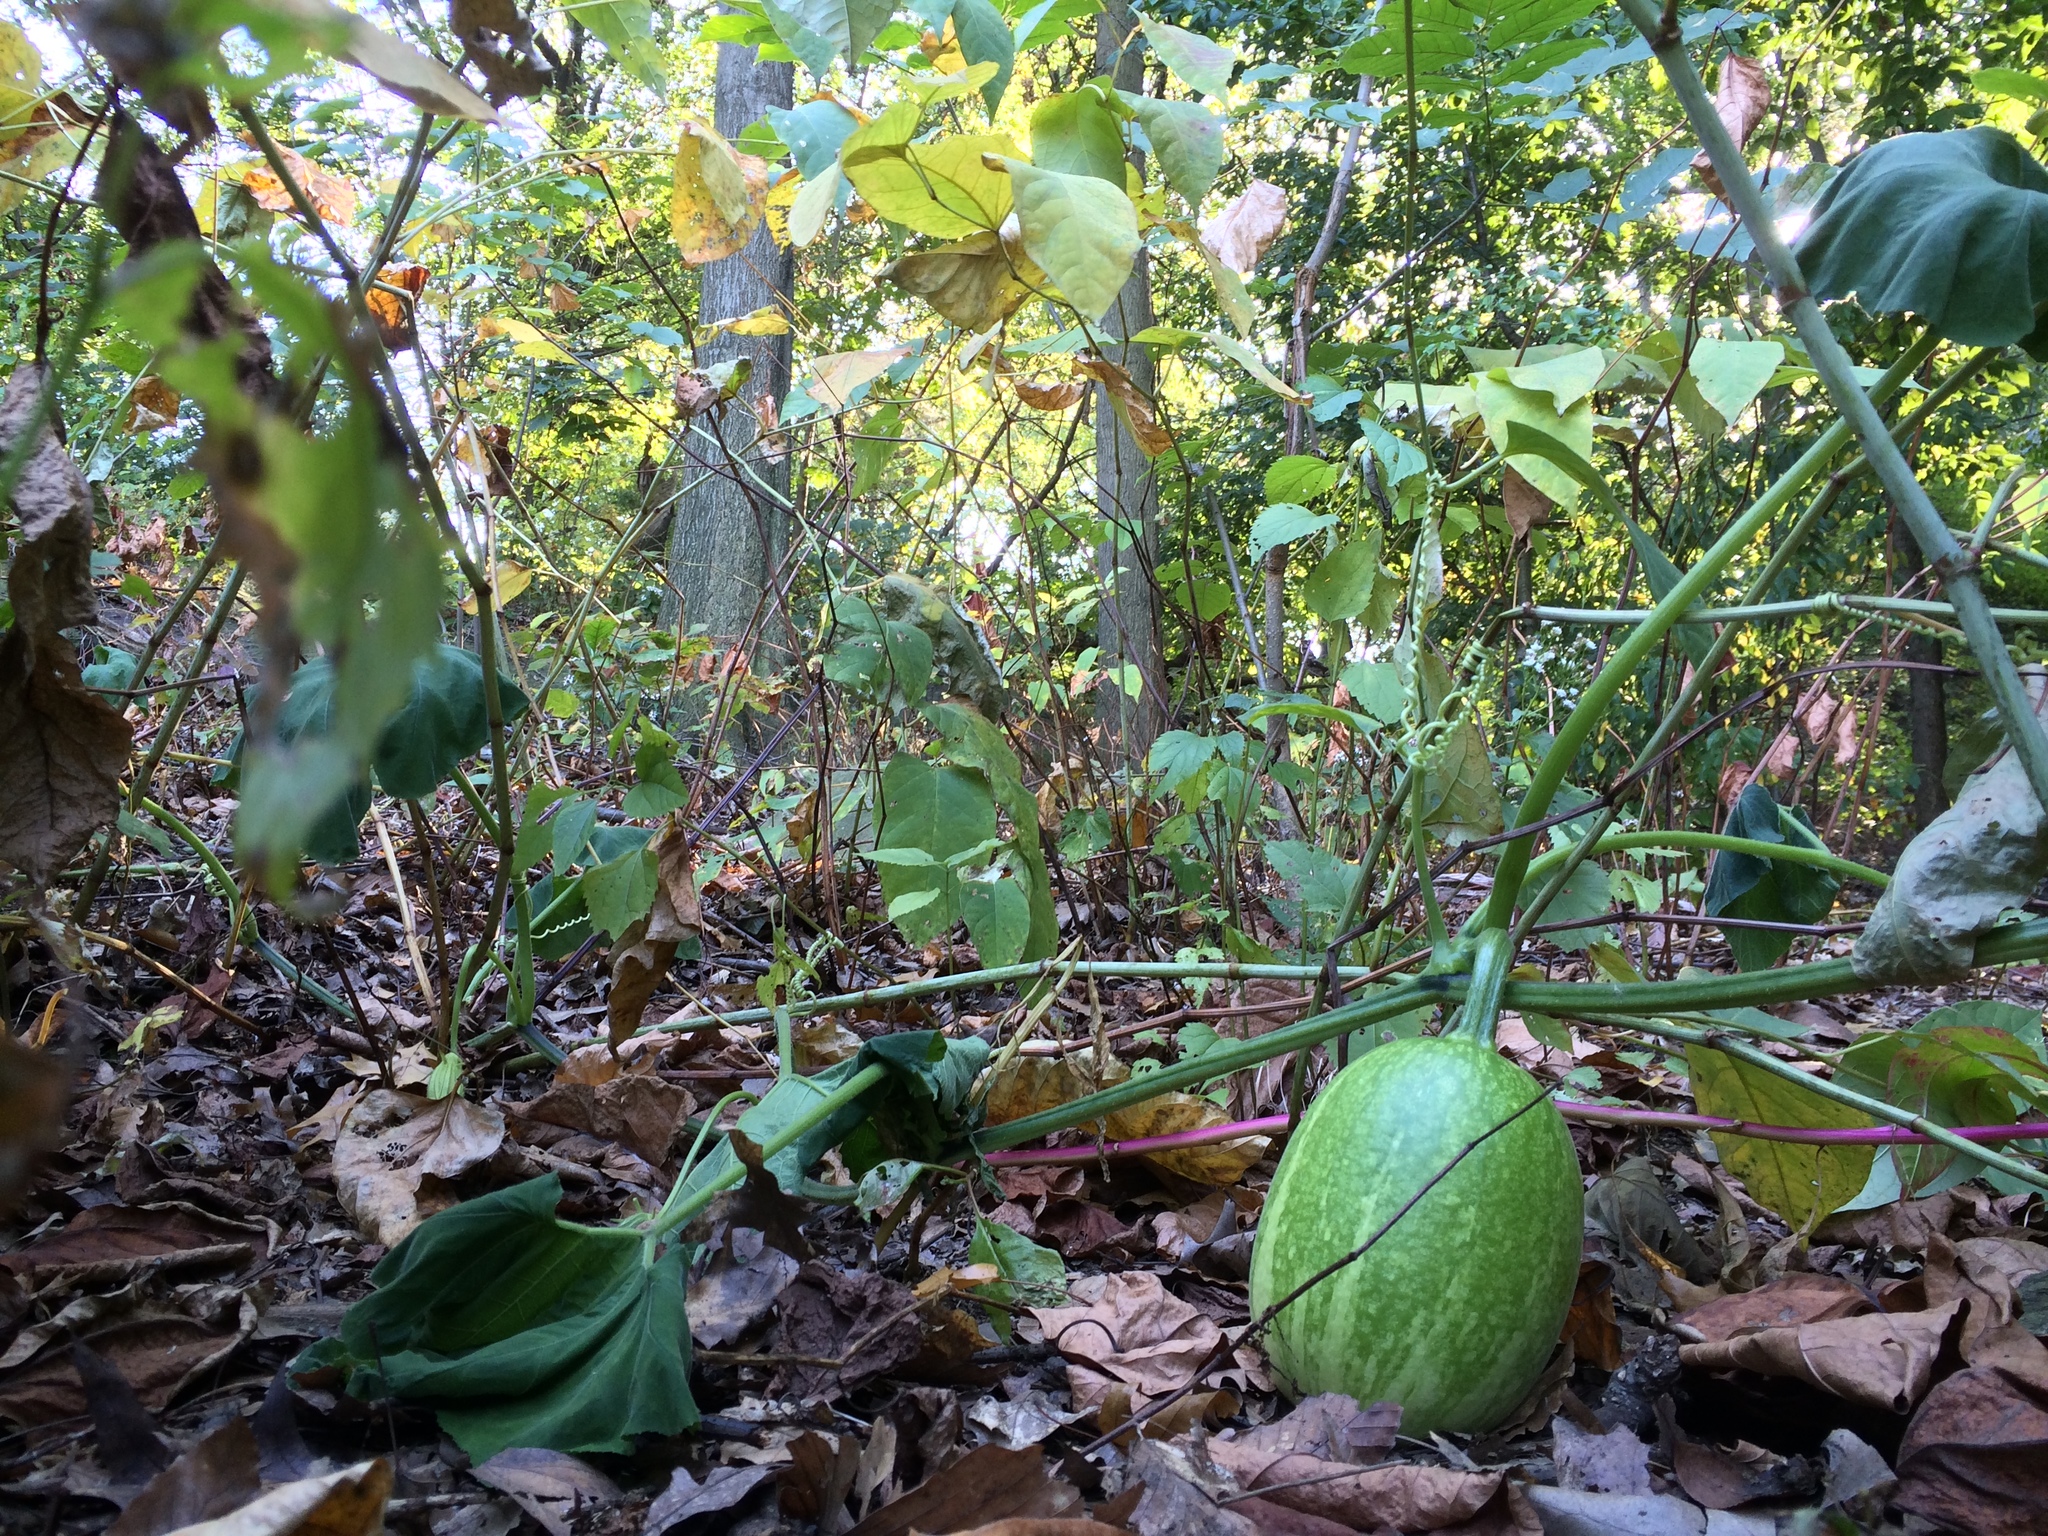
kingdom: Plantae
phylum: Tracheophyta
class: Magnoliopsida
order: Cucurbitales
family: Cucurbitaceae
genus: Cucurbita
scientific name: Cucurbita pepo
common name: Marrow
